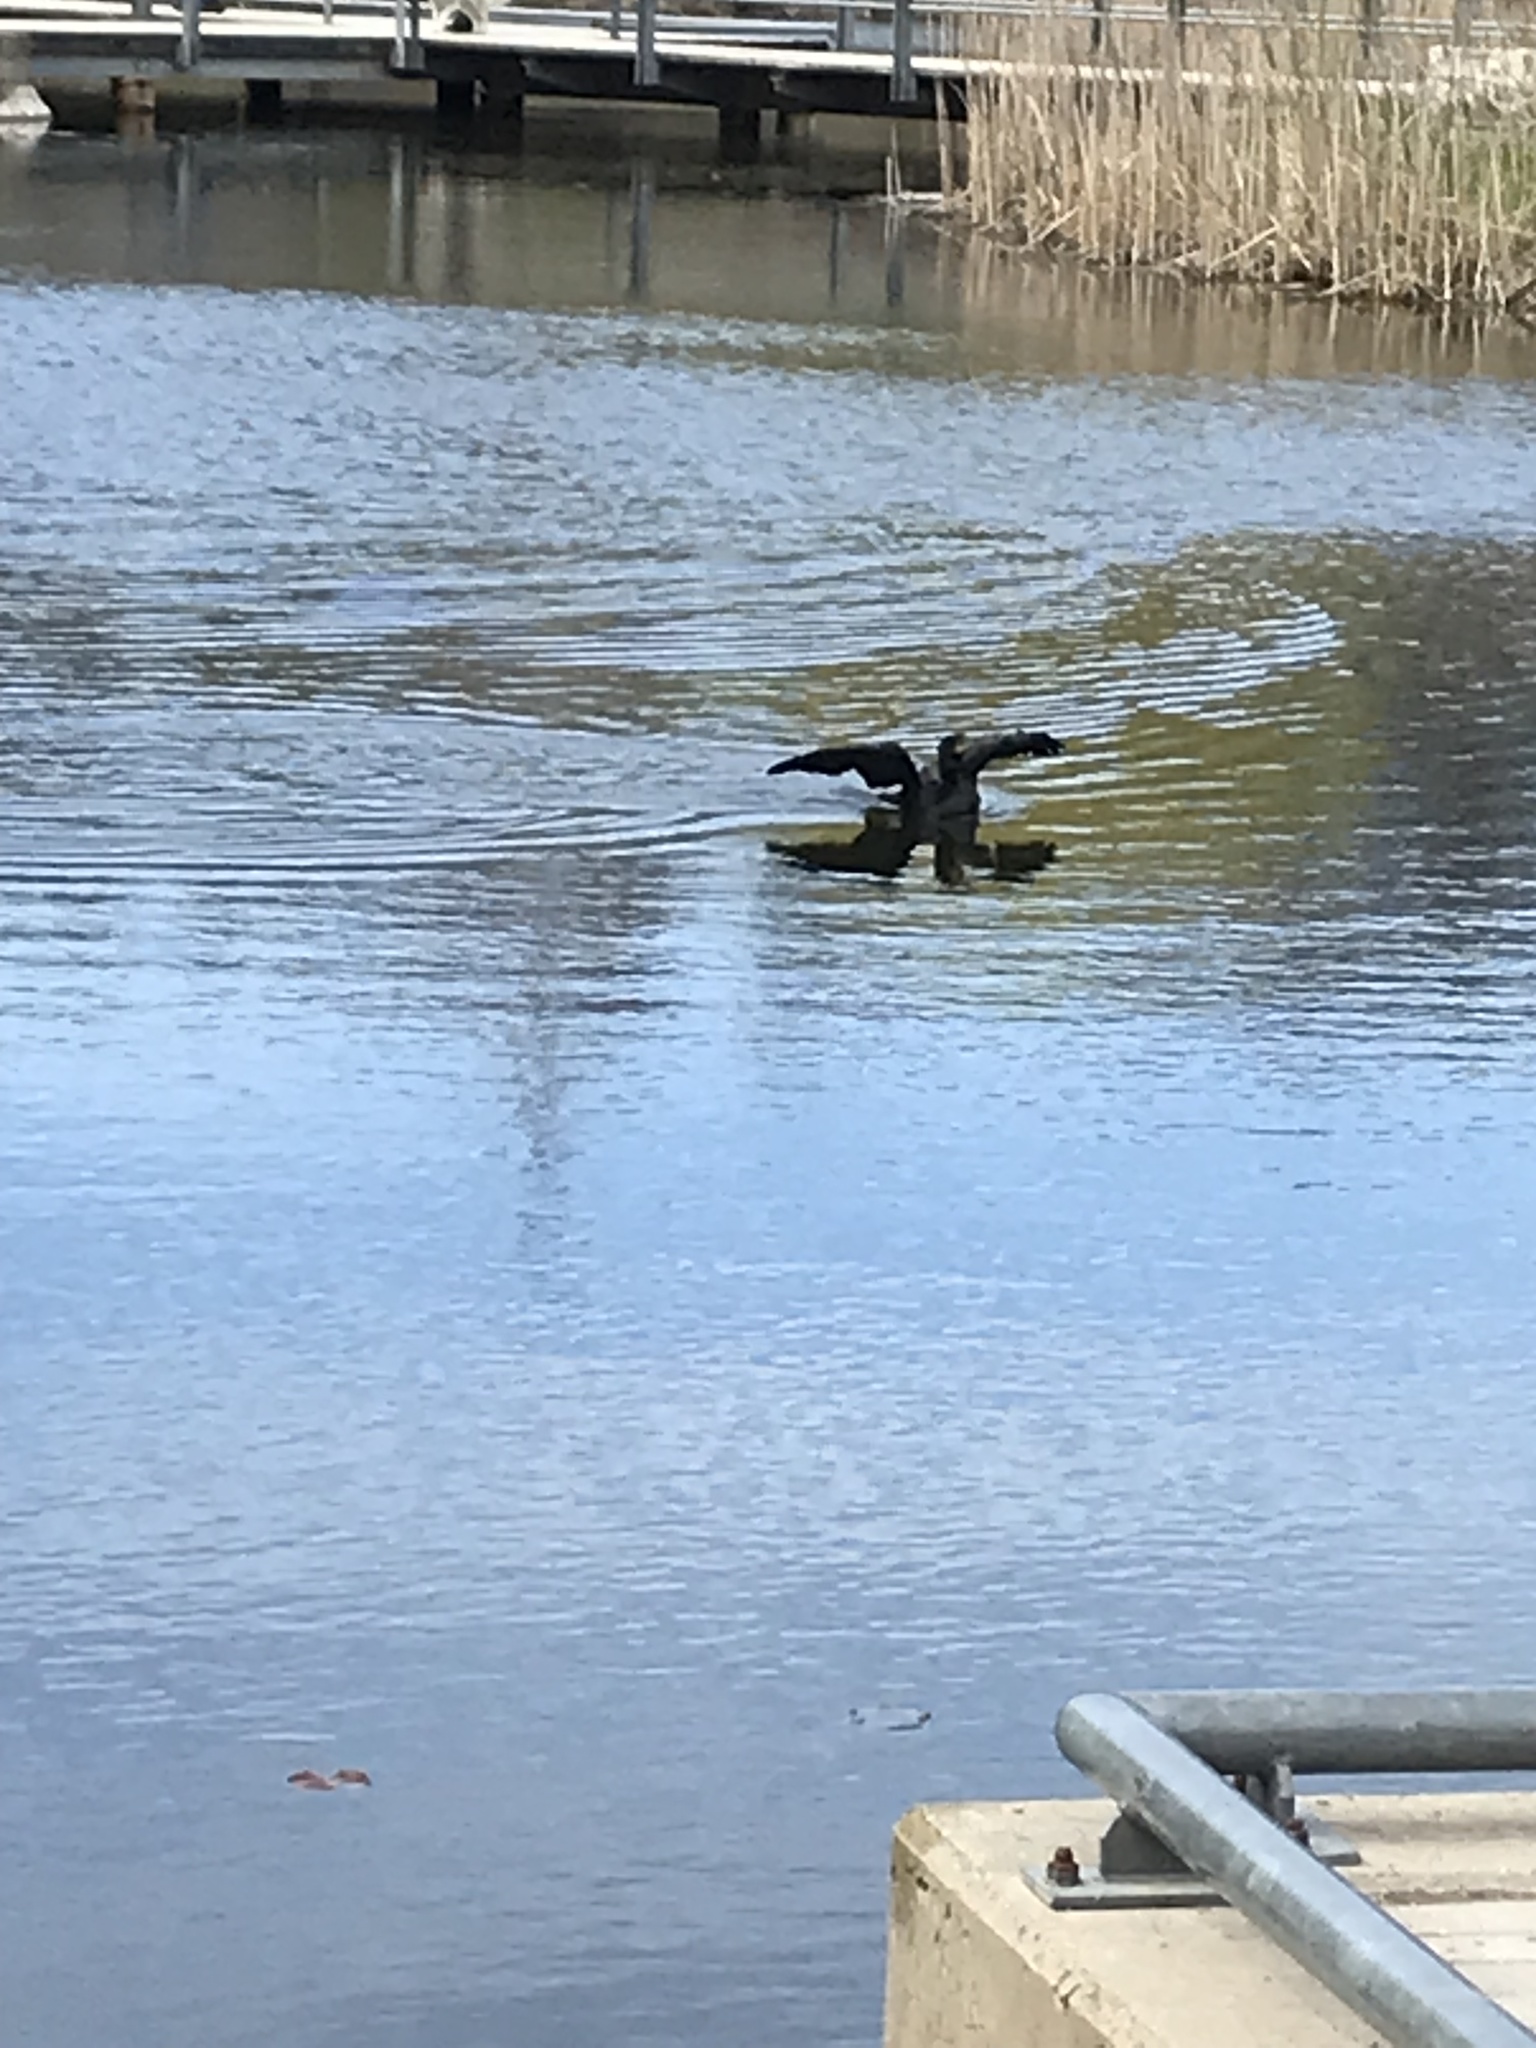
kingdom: Animalia
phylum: Chordata
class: Aves
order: Suliformes
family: Phalacrocoracidae
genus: Phalacrocorax
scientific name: Phalacrocorax auritus
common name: Double-crested cormorant
